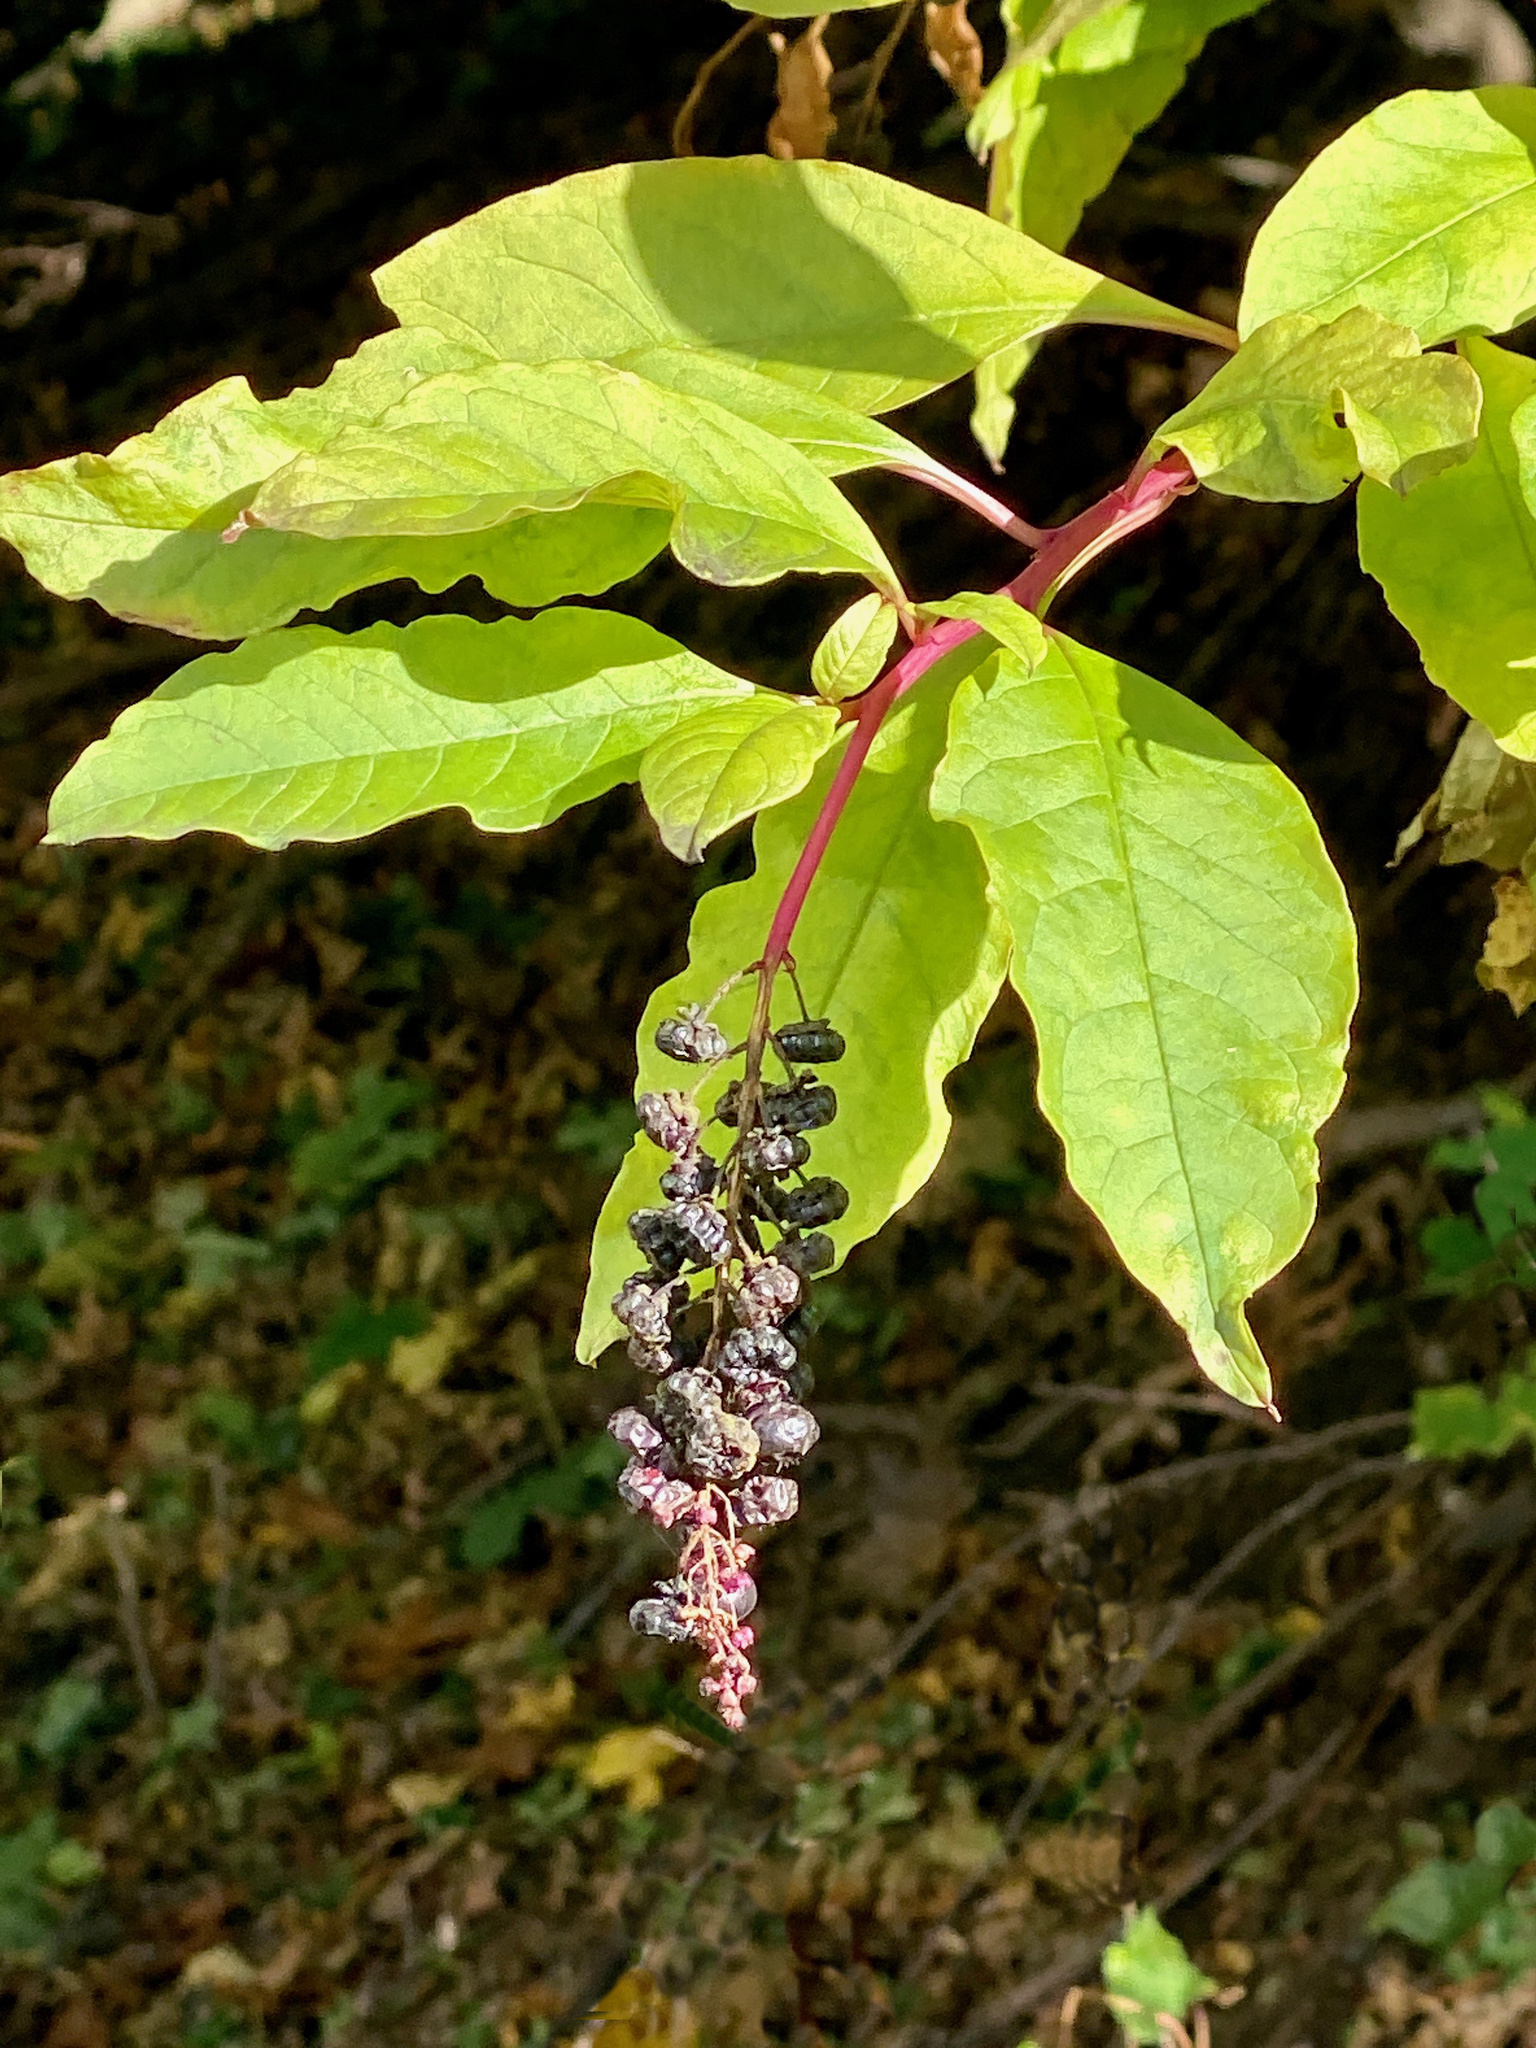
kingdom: Plantae
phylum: Tracheophyta
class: Magnoliopsida
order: Caryophyllales
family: Phytolaccaceae
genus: Phytolacca
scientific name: Phytolacca americana
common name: American pokeweed
